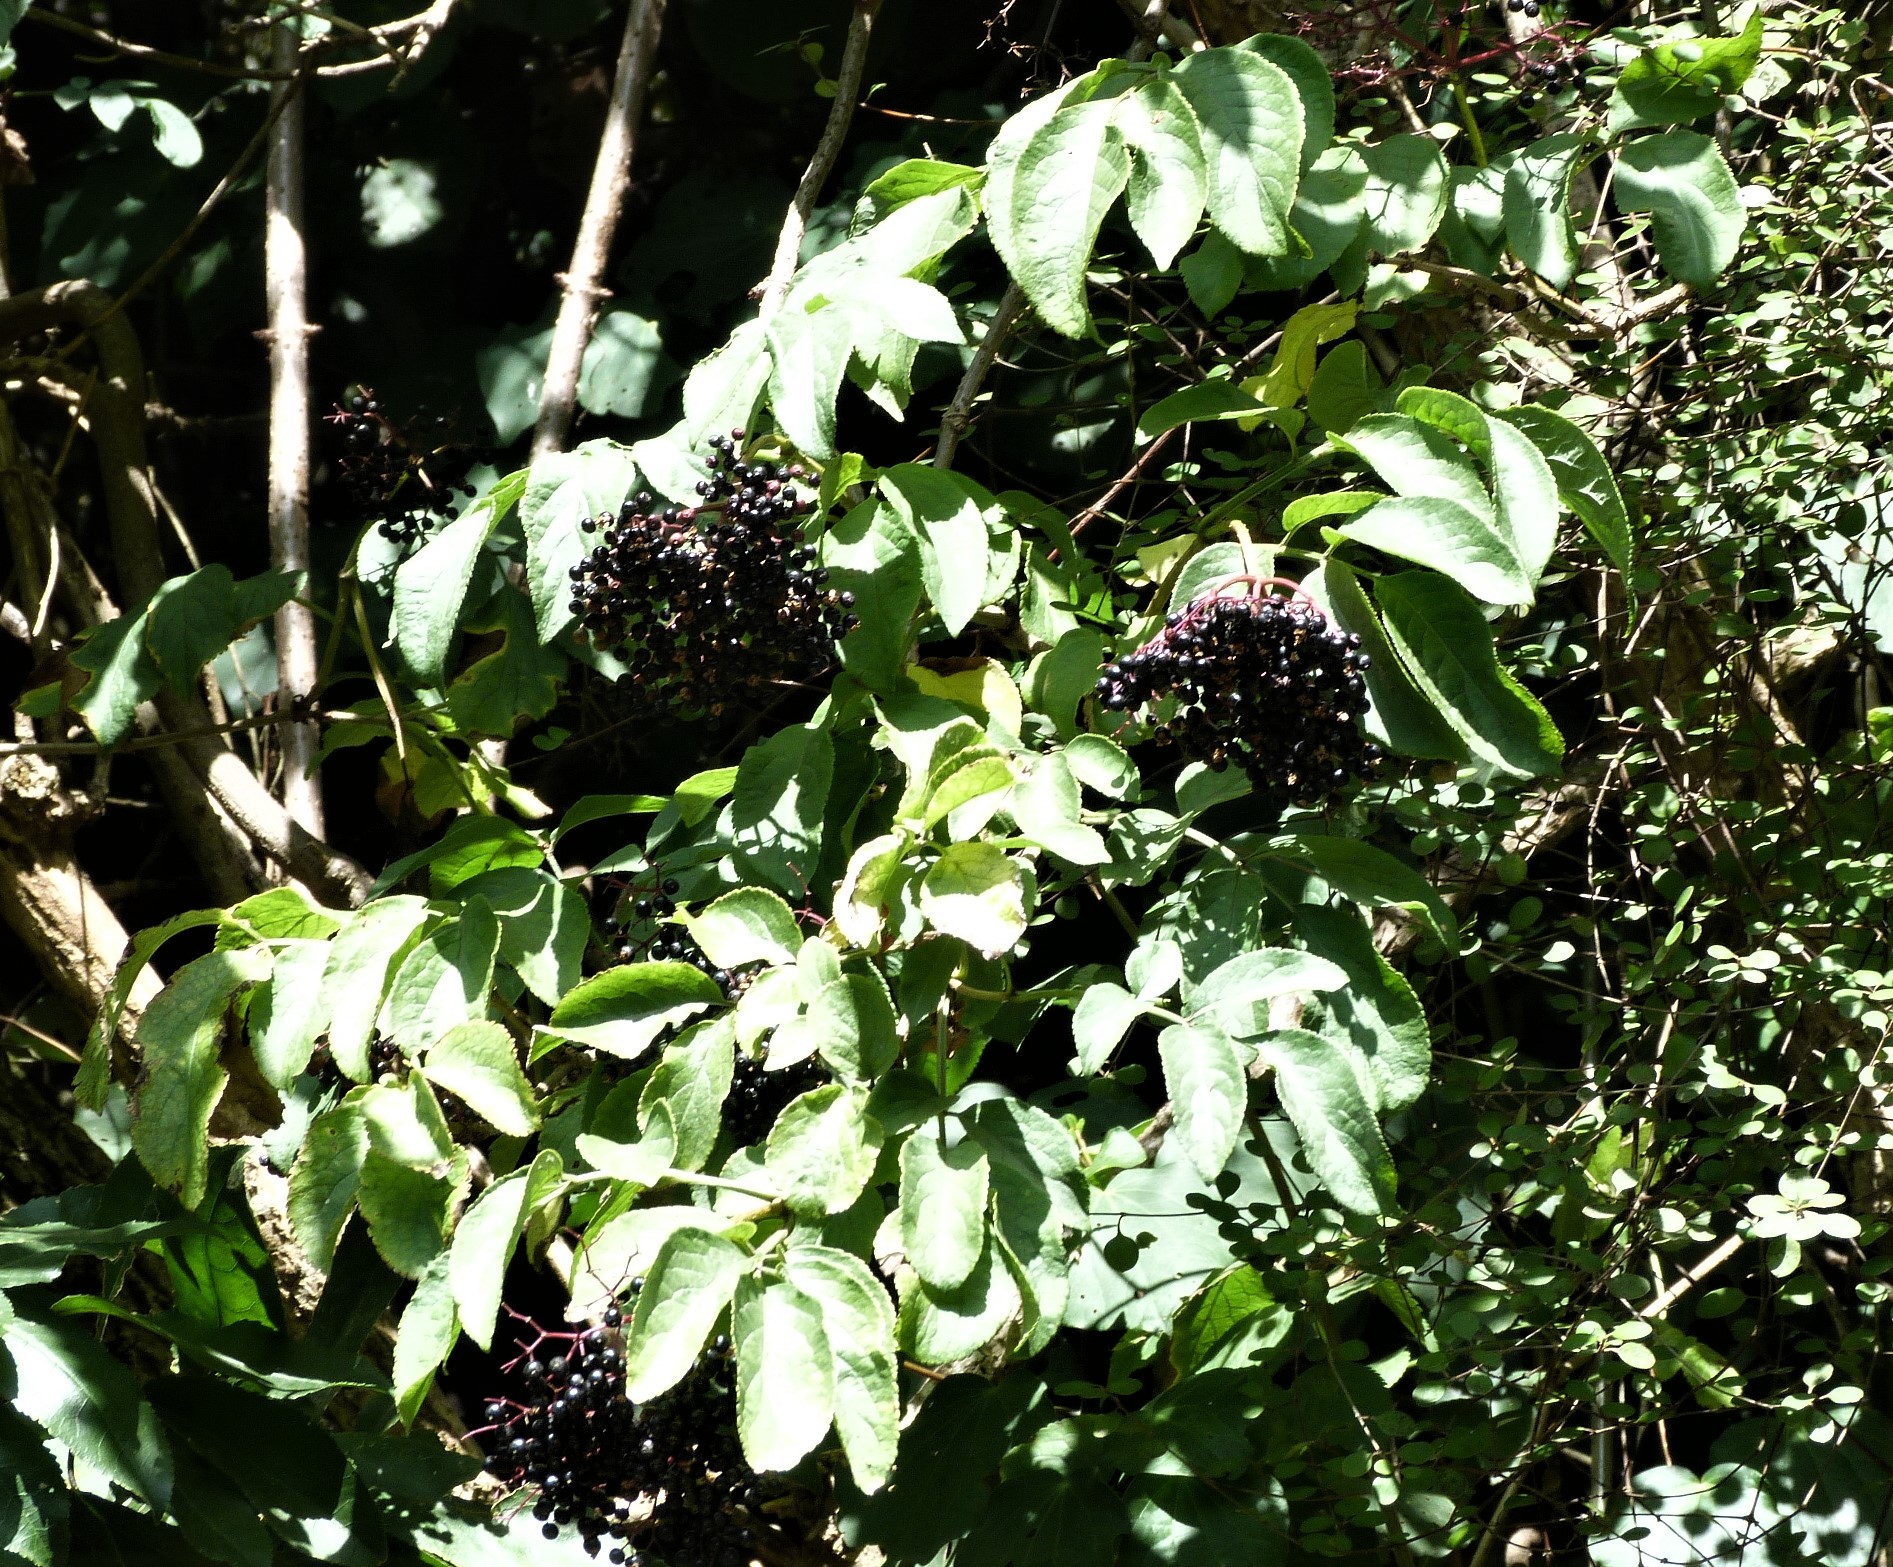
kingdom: Plantae
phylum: Tracheophyta
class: Magnoliopsida
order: Dipsacales
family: Viburnaceae
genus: Sambucus
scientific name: Sambucus nigra
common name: Elder
